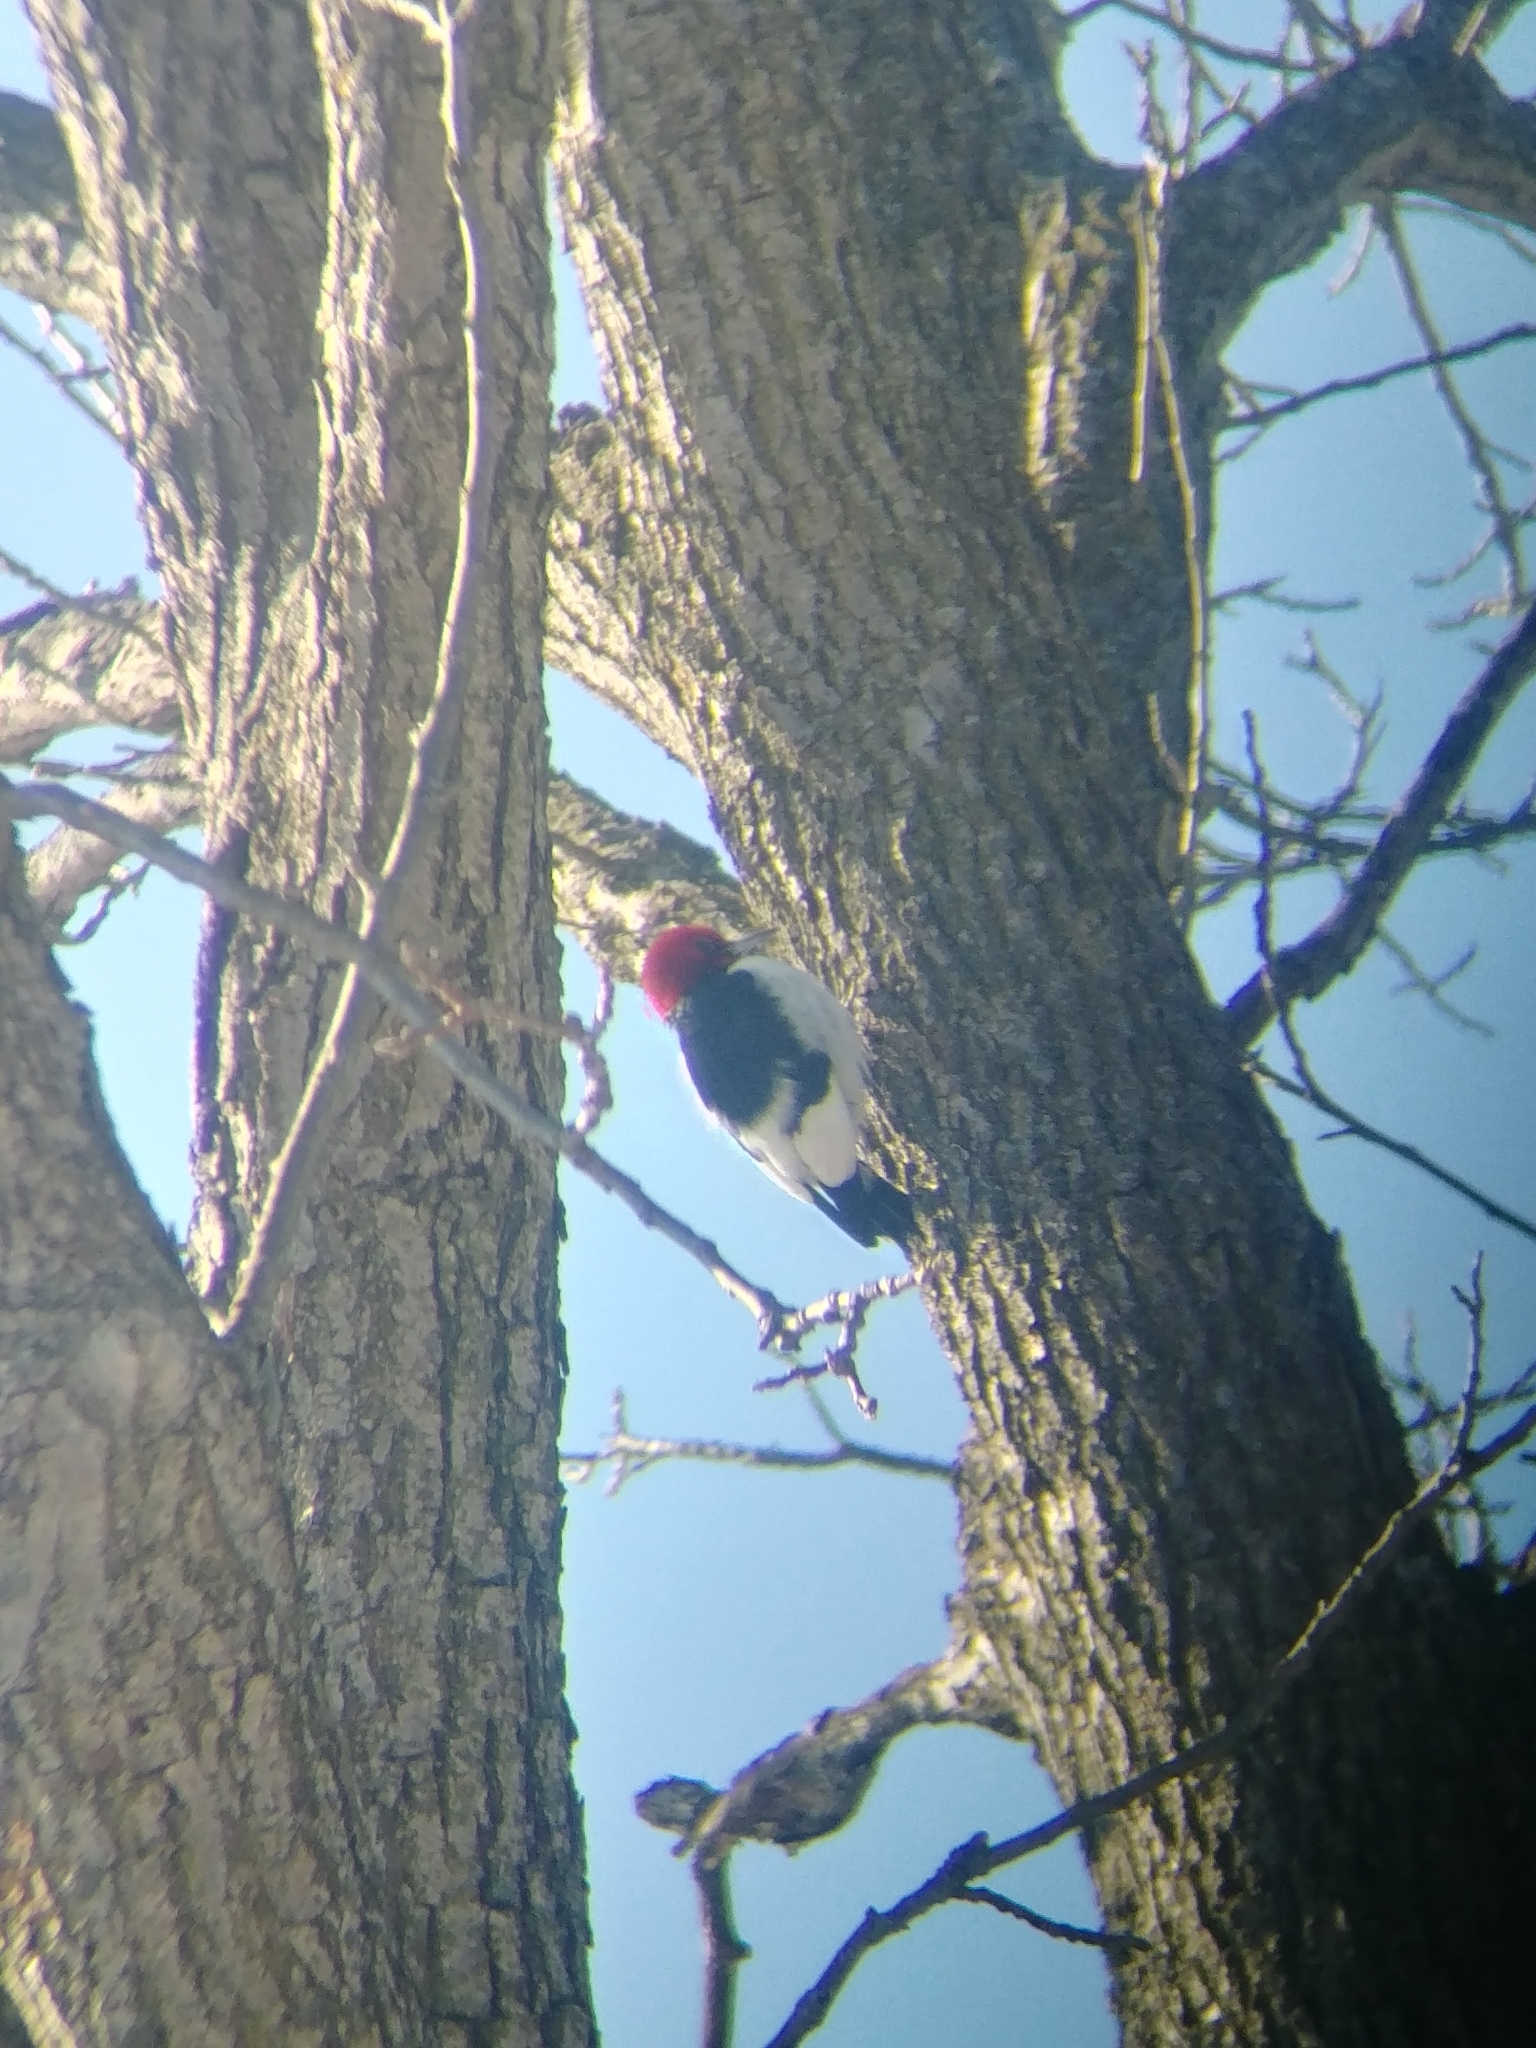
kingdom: Animalia
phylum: Chordata
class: Aves
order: Piciformes
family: Picidae
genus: Melanerpes
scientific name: Melanerpes erythrocephalus
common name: Red-headed woodpecker
